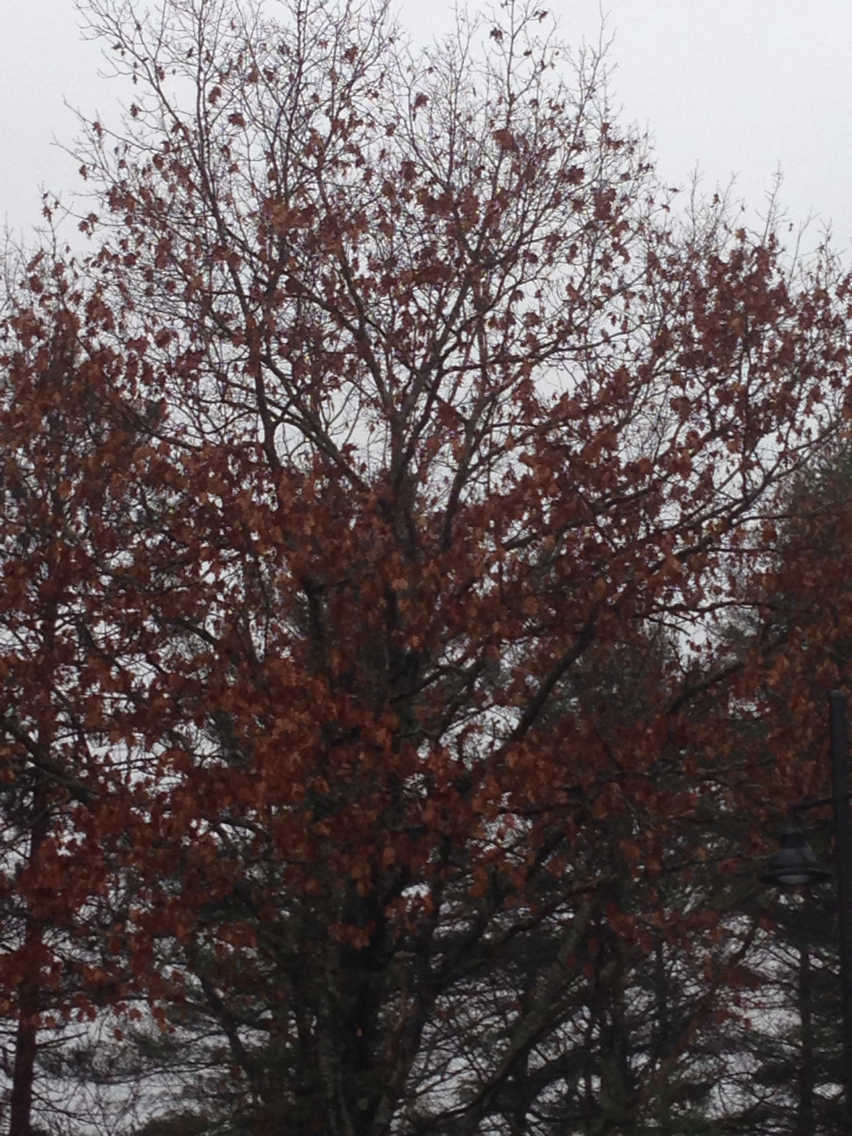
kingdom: Plantae
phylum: Tracheophyta
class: Magnoliopsida
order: Fagales
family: Fagaceae
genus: Quercus
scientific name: Quercus rubra
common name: Red oak
